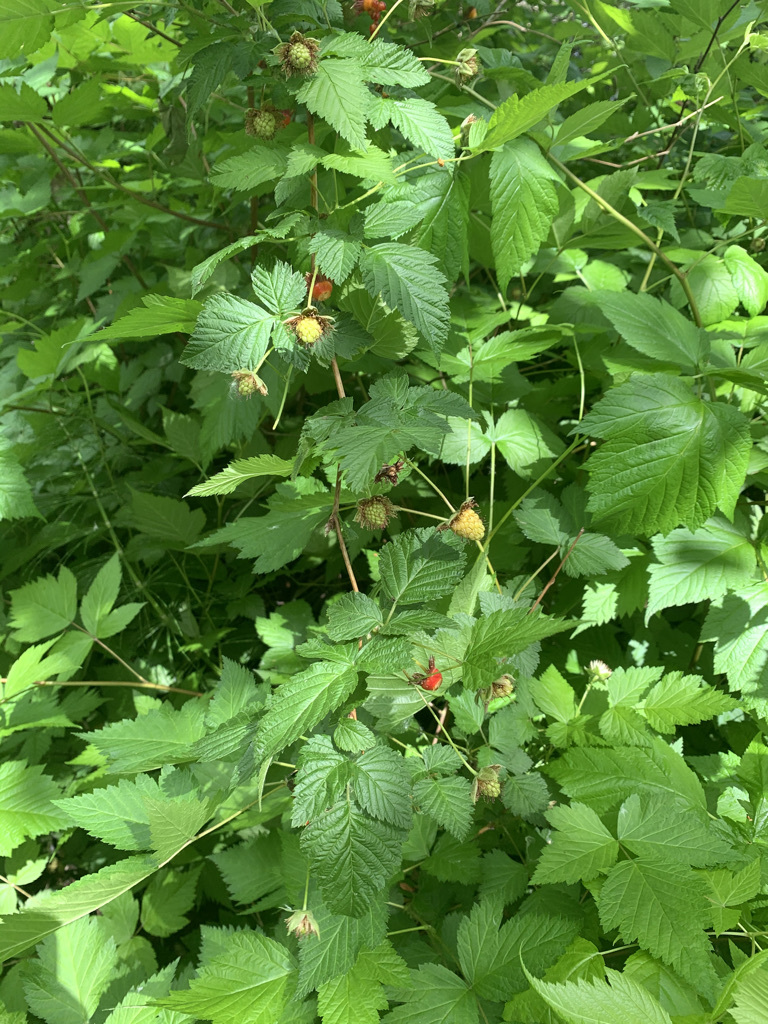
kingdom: Plantae
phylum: Tracheophyta
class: Magnoliopsida
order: Rosales
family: Rosaceae
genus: Rubus
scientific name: Rubus spectabilis
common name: Salmonberry
